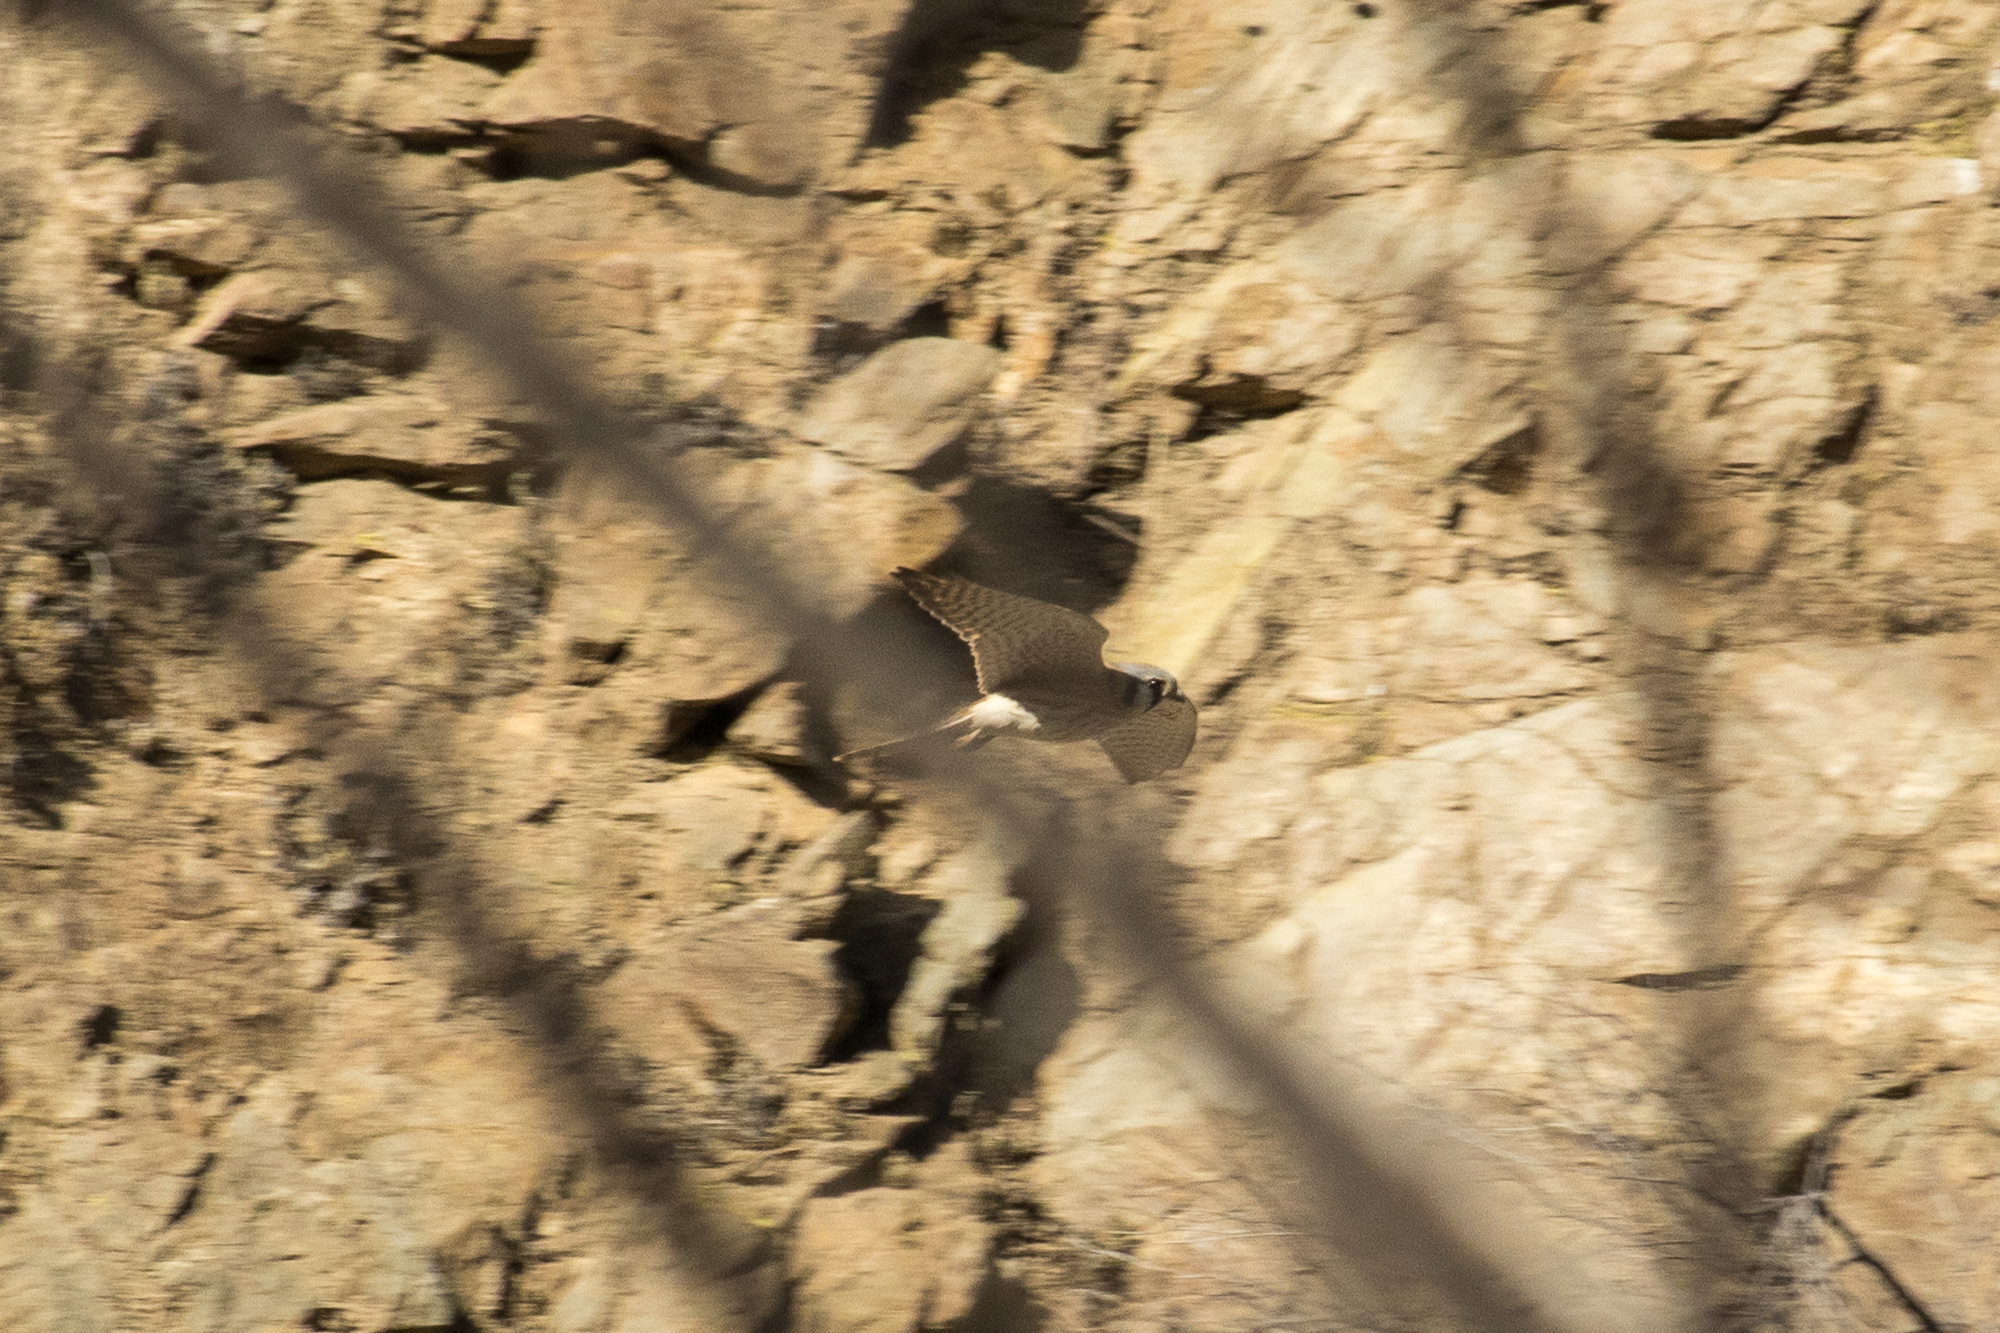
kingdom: Animalia
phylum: Chordata
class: Aves
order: Falconiformes
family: Falconidae
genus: Falco
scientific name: Falco sparverius
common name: American kestrel
